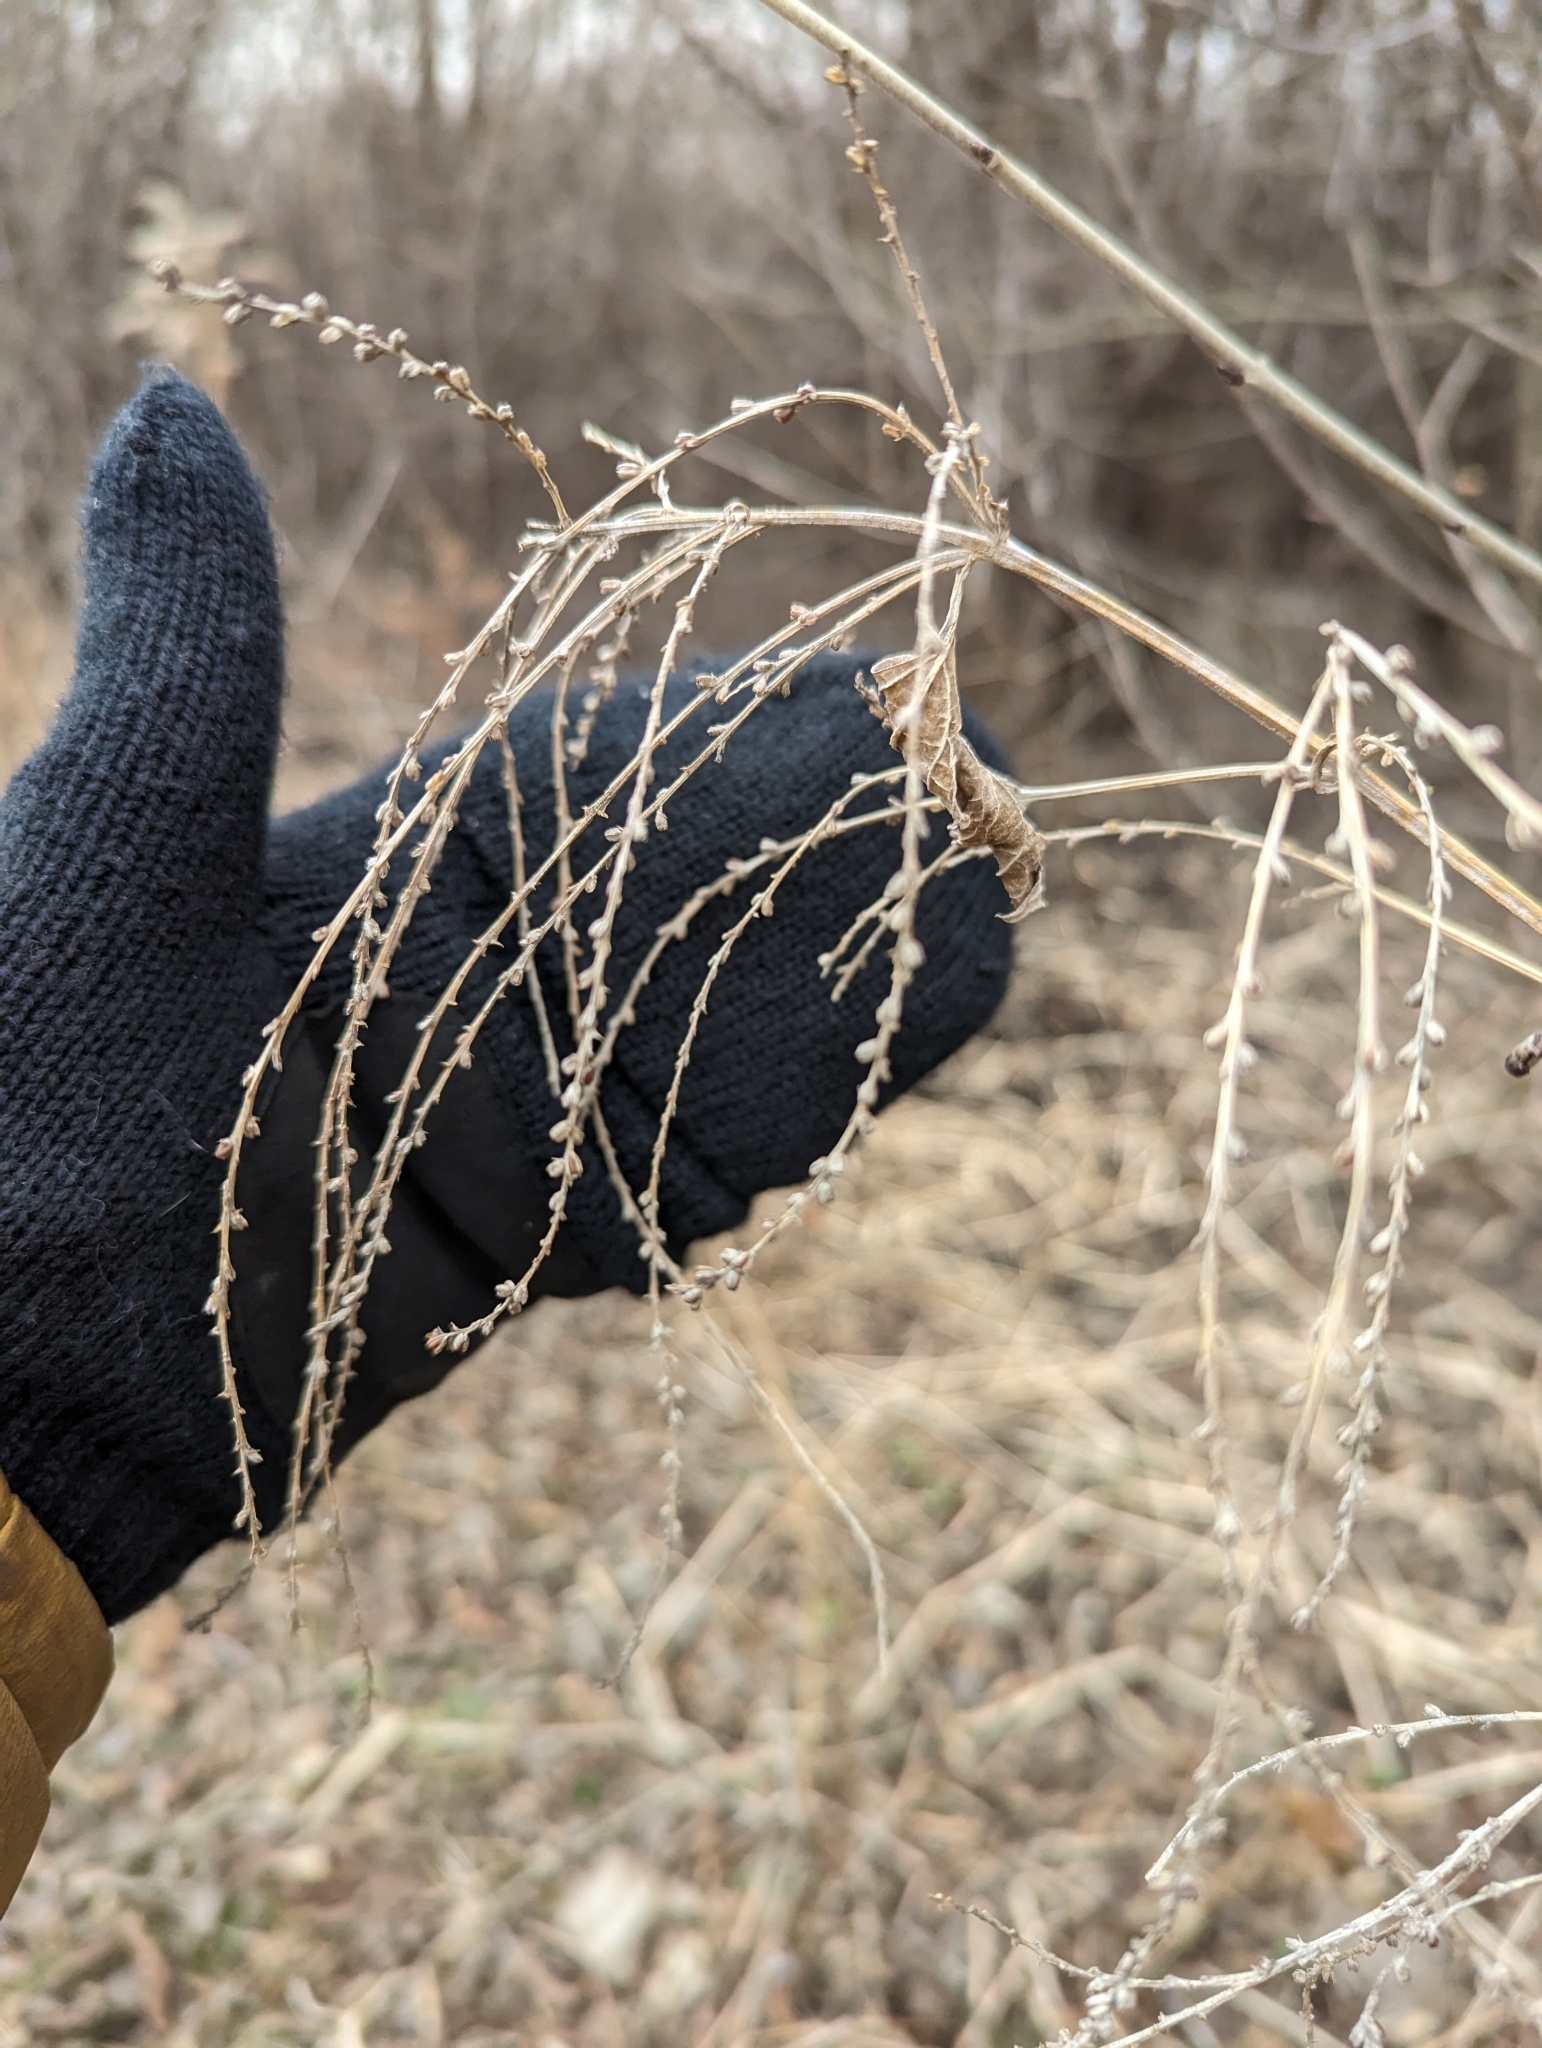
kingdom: Plantae
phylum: Tracheophyta
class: Magnoliopsida
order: Lamiales
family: Verbenaceae
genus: Verbena
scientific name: Verbena urticifolia
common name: Nettle-leaved vervain
